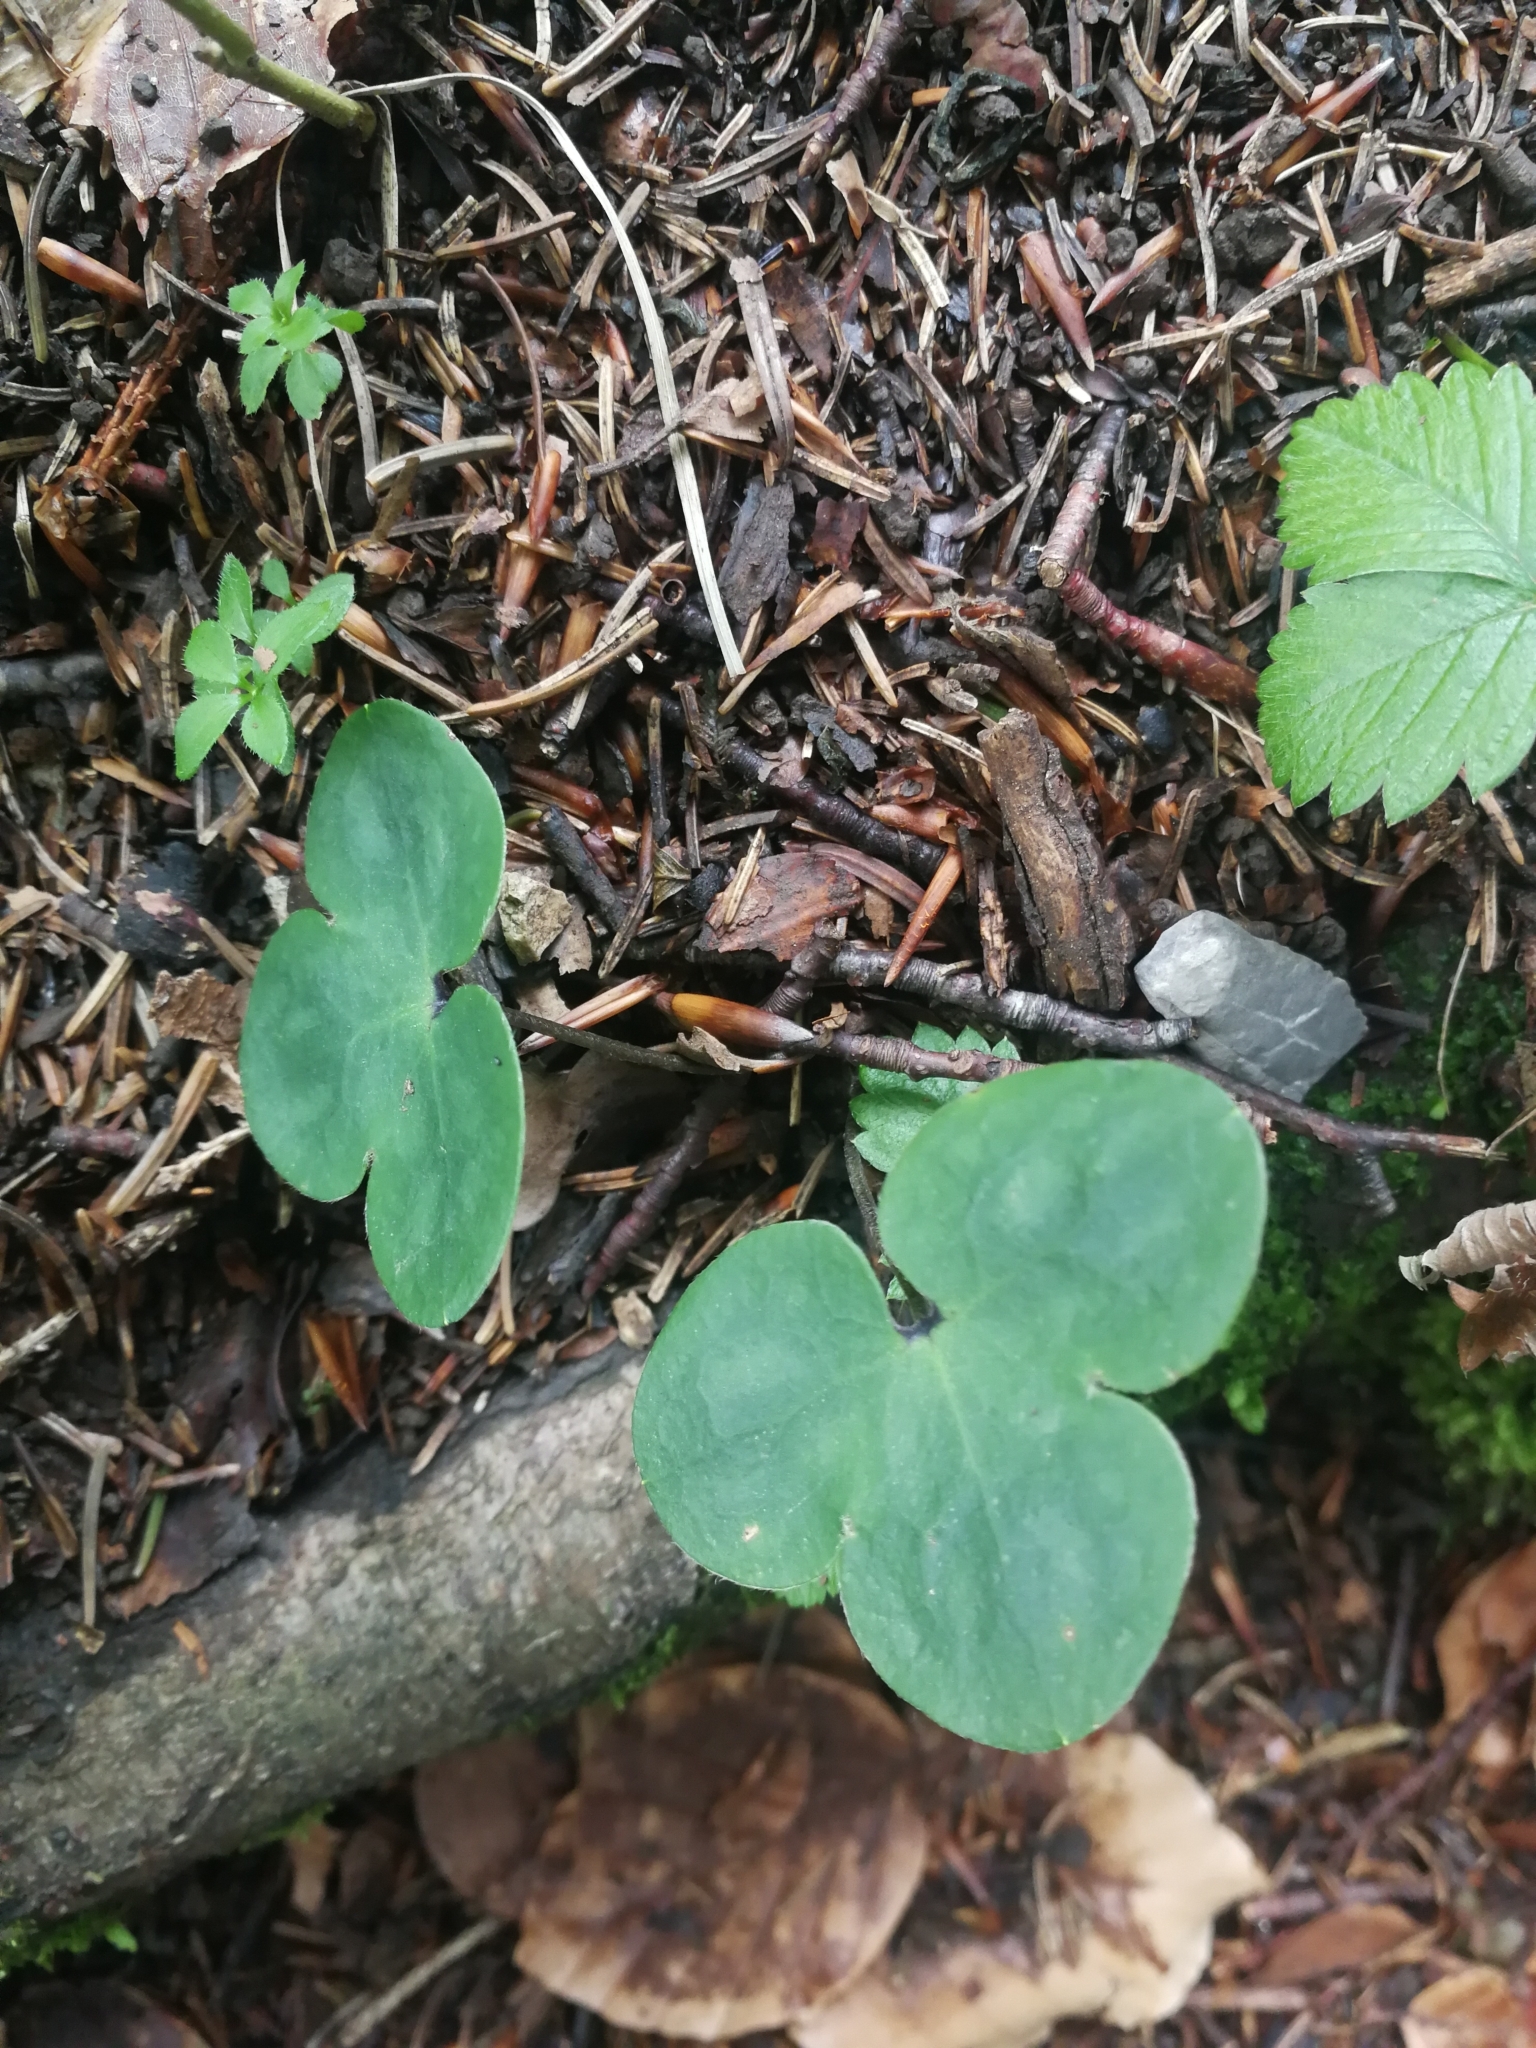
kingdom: Plantae
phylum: Tracheophyta
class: Magnoliopsida
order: Ranunculales
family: Ranunculaceae
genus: Hepatica
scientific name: Hepatica nobilis
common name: Liverleaf
